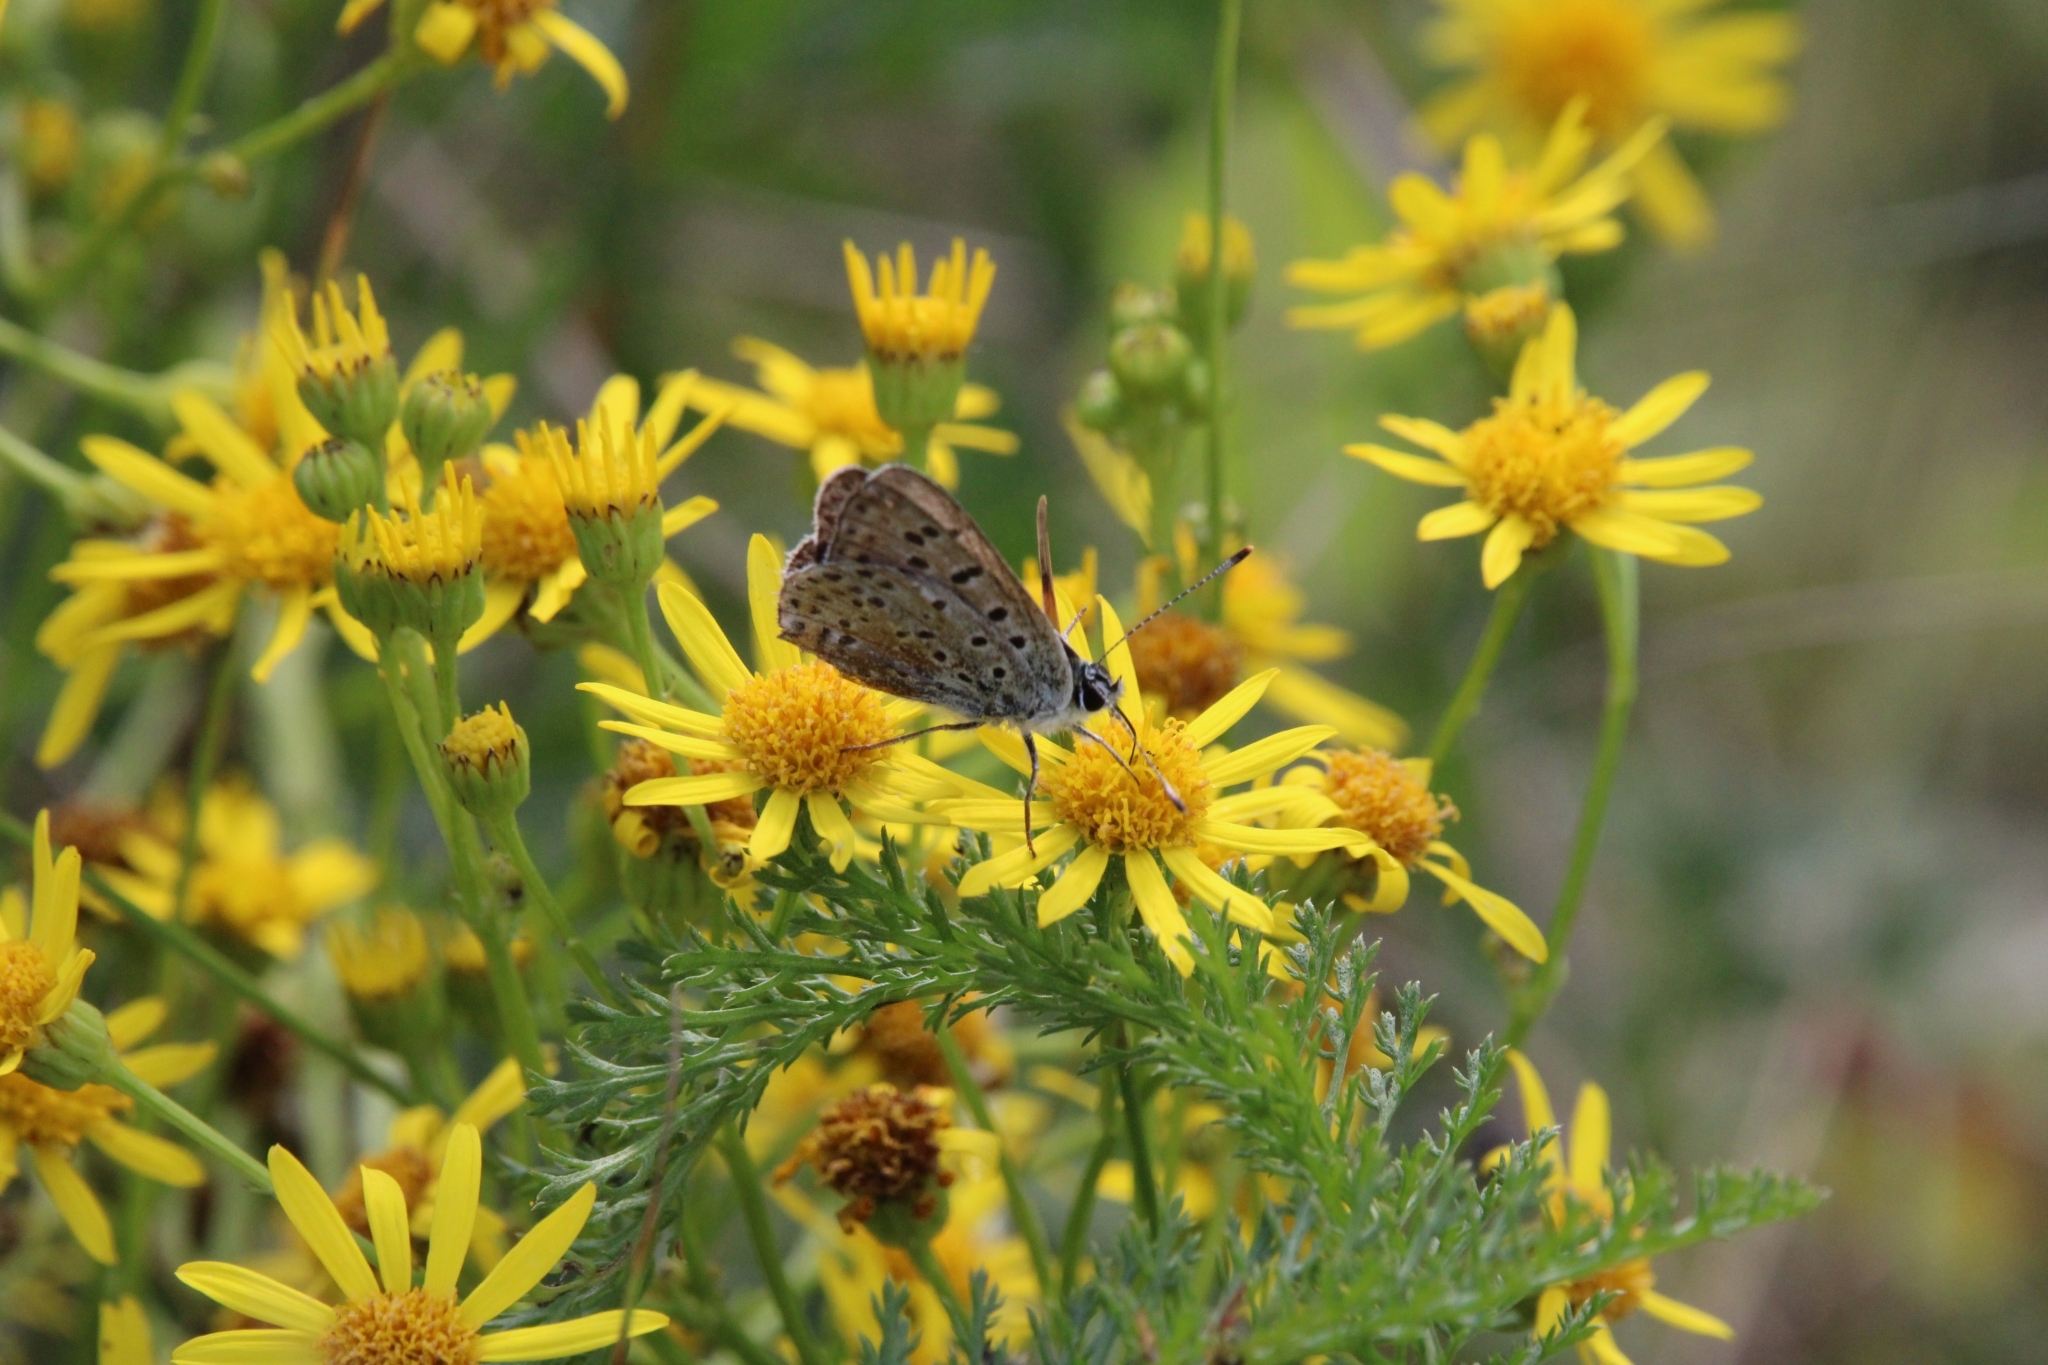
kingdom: Animalia
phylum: Arthropoda
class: Insecta
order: Lepidoptera
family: Lycaenidae
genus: Loweia
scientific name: Loweia tityrus
